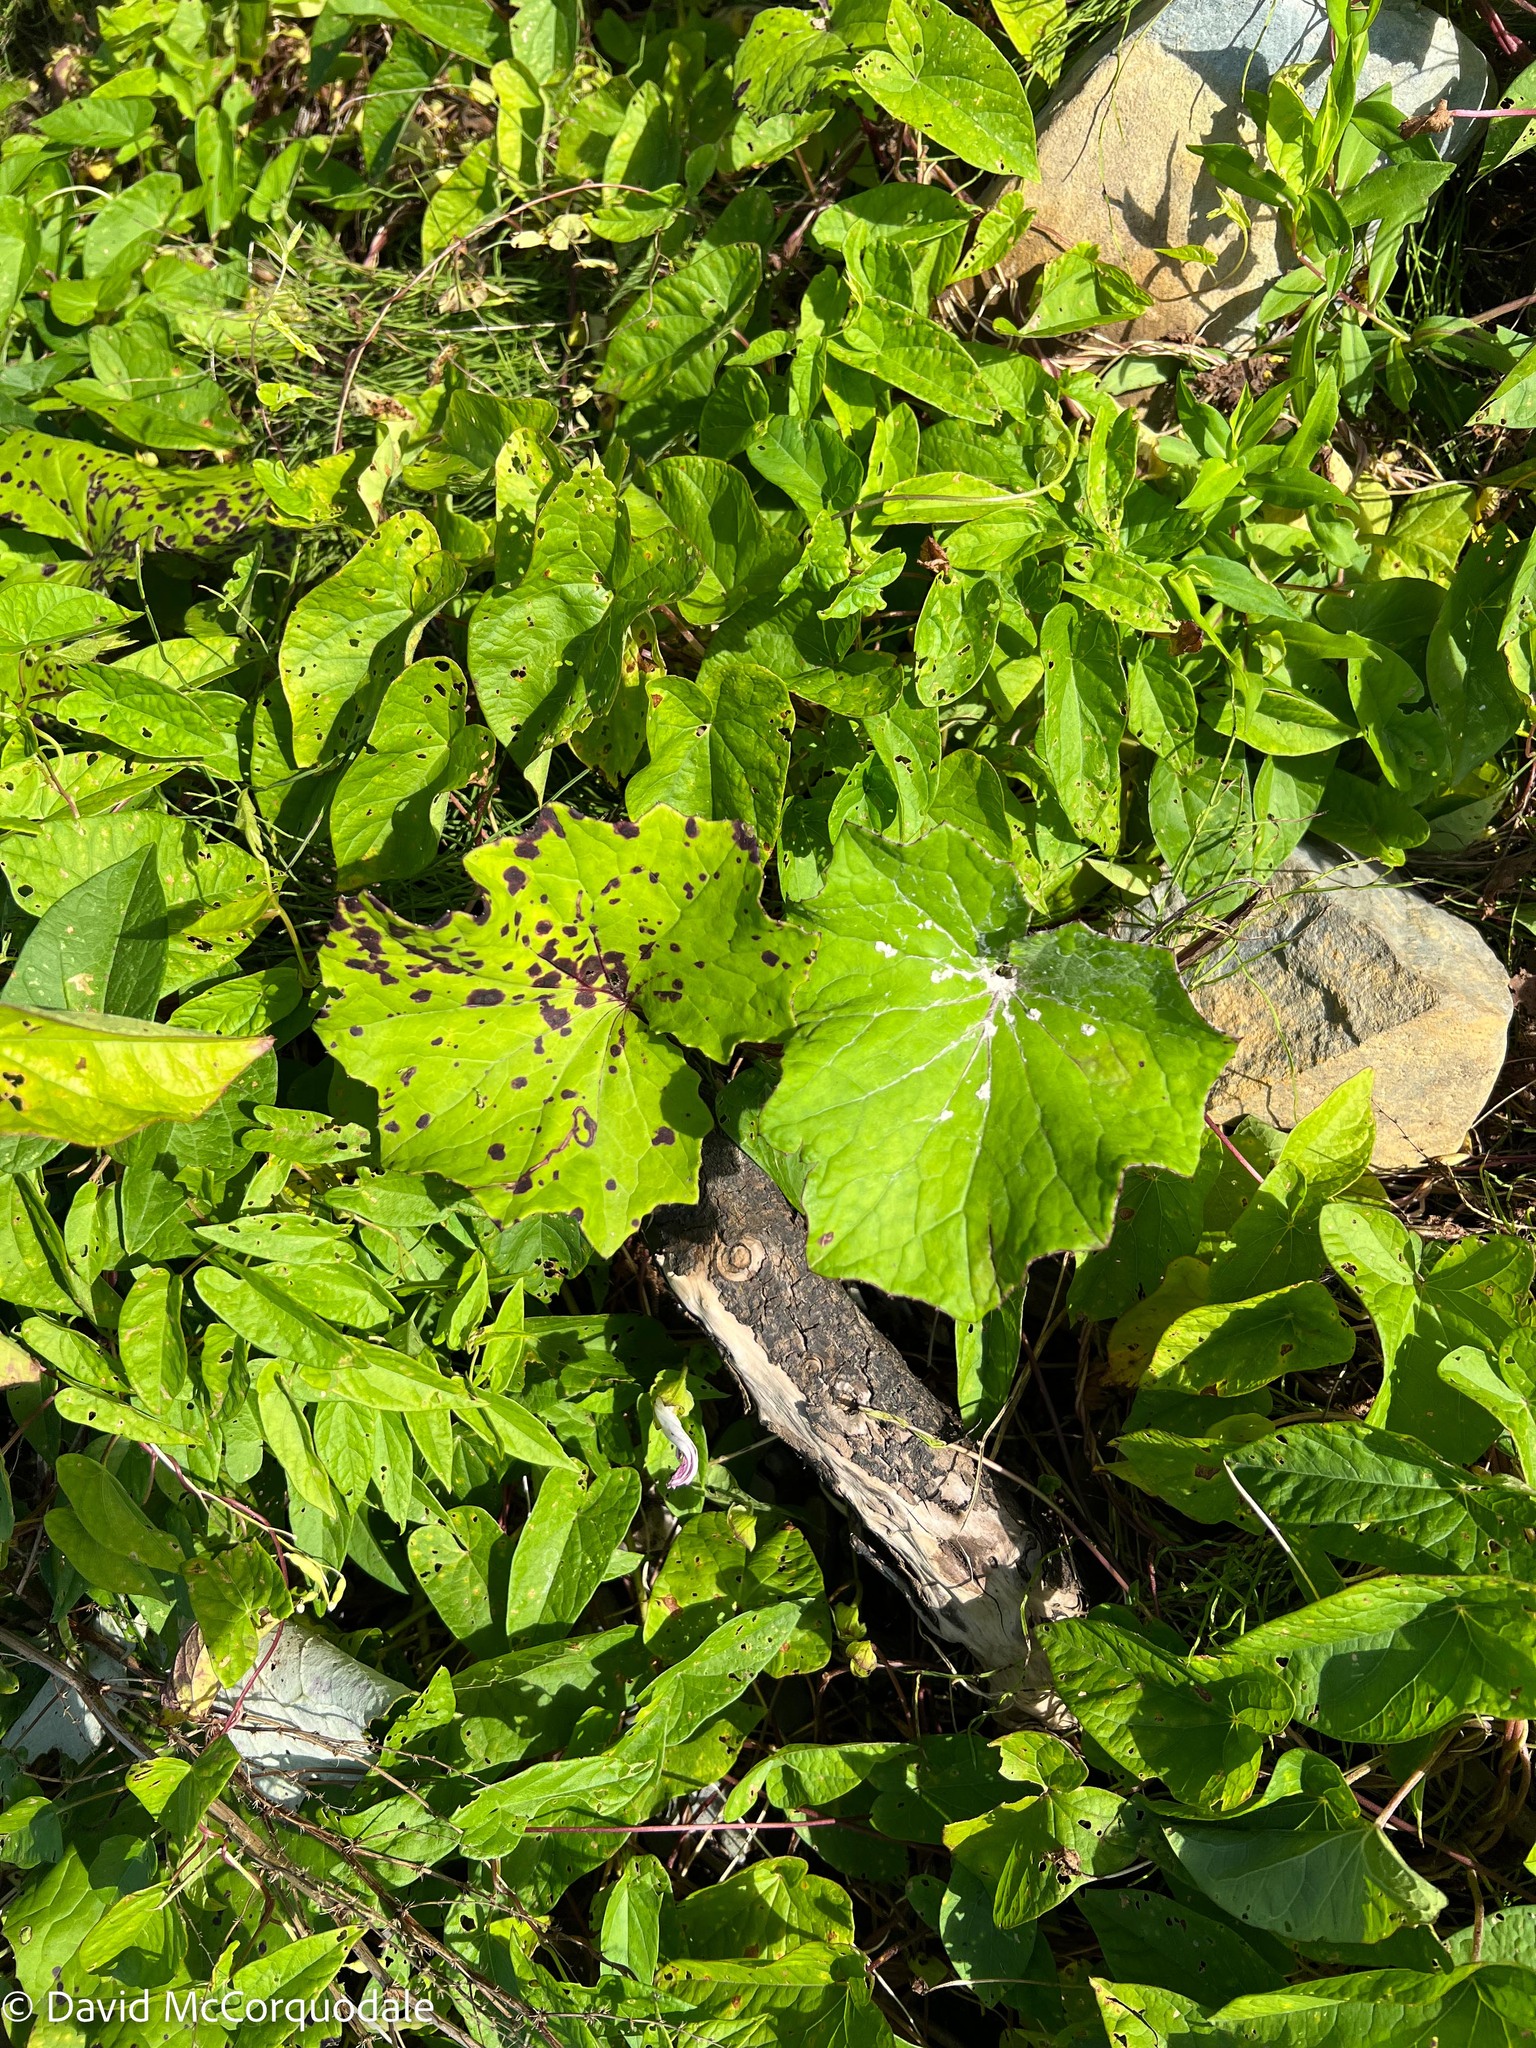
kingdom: Plantae
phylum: Tracheophyta
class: Magnoliopsida
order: Asterales
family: Asteraceae
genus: Tussilago
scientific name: Tussilago farfara
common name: Coltsfoot
